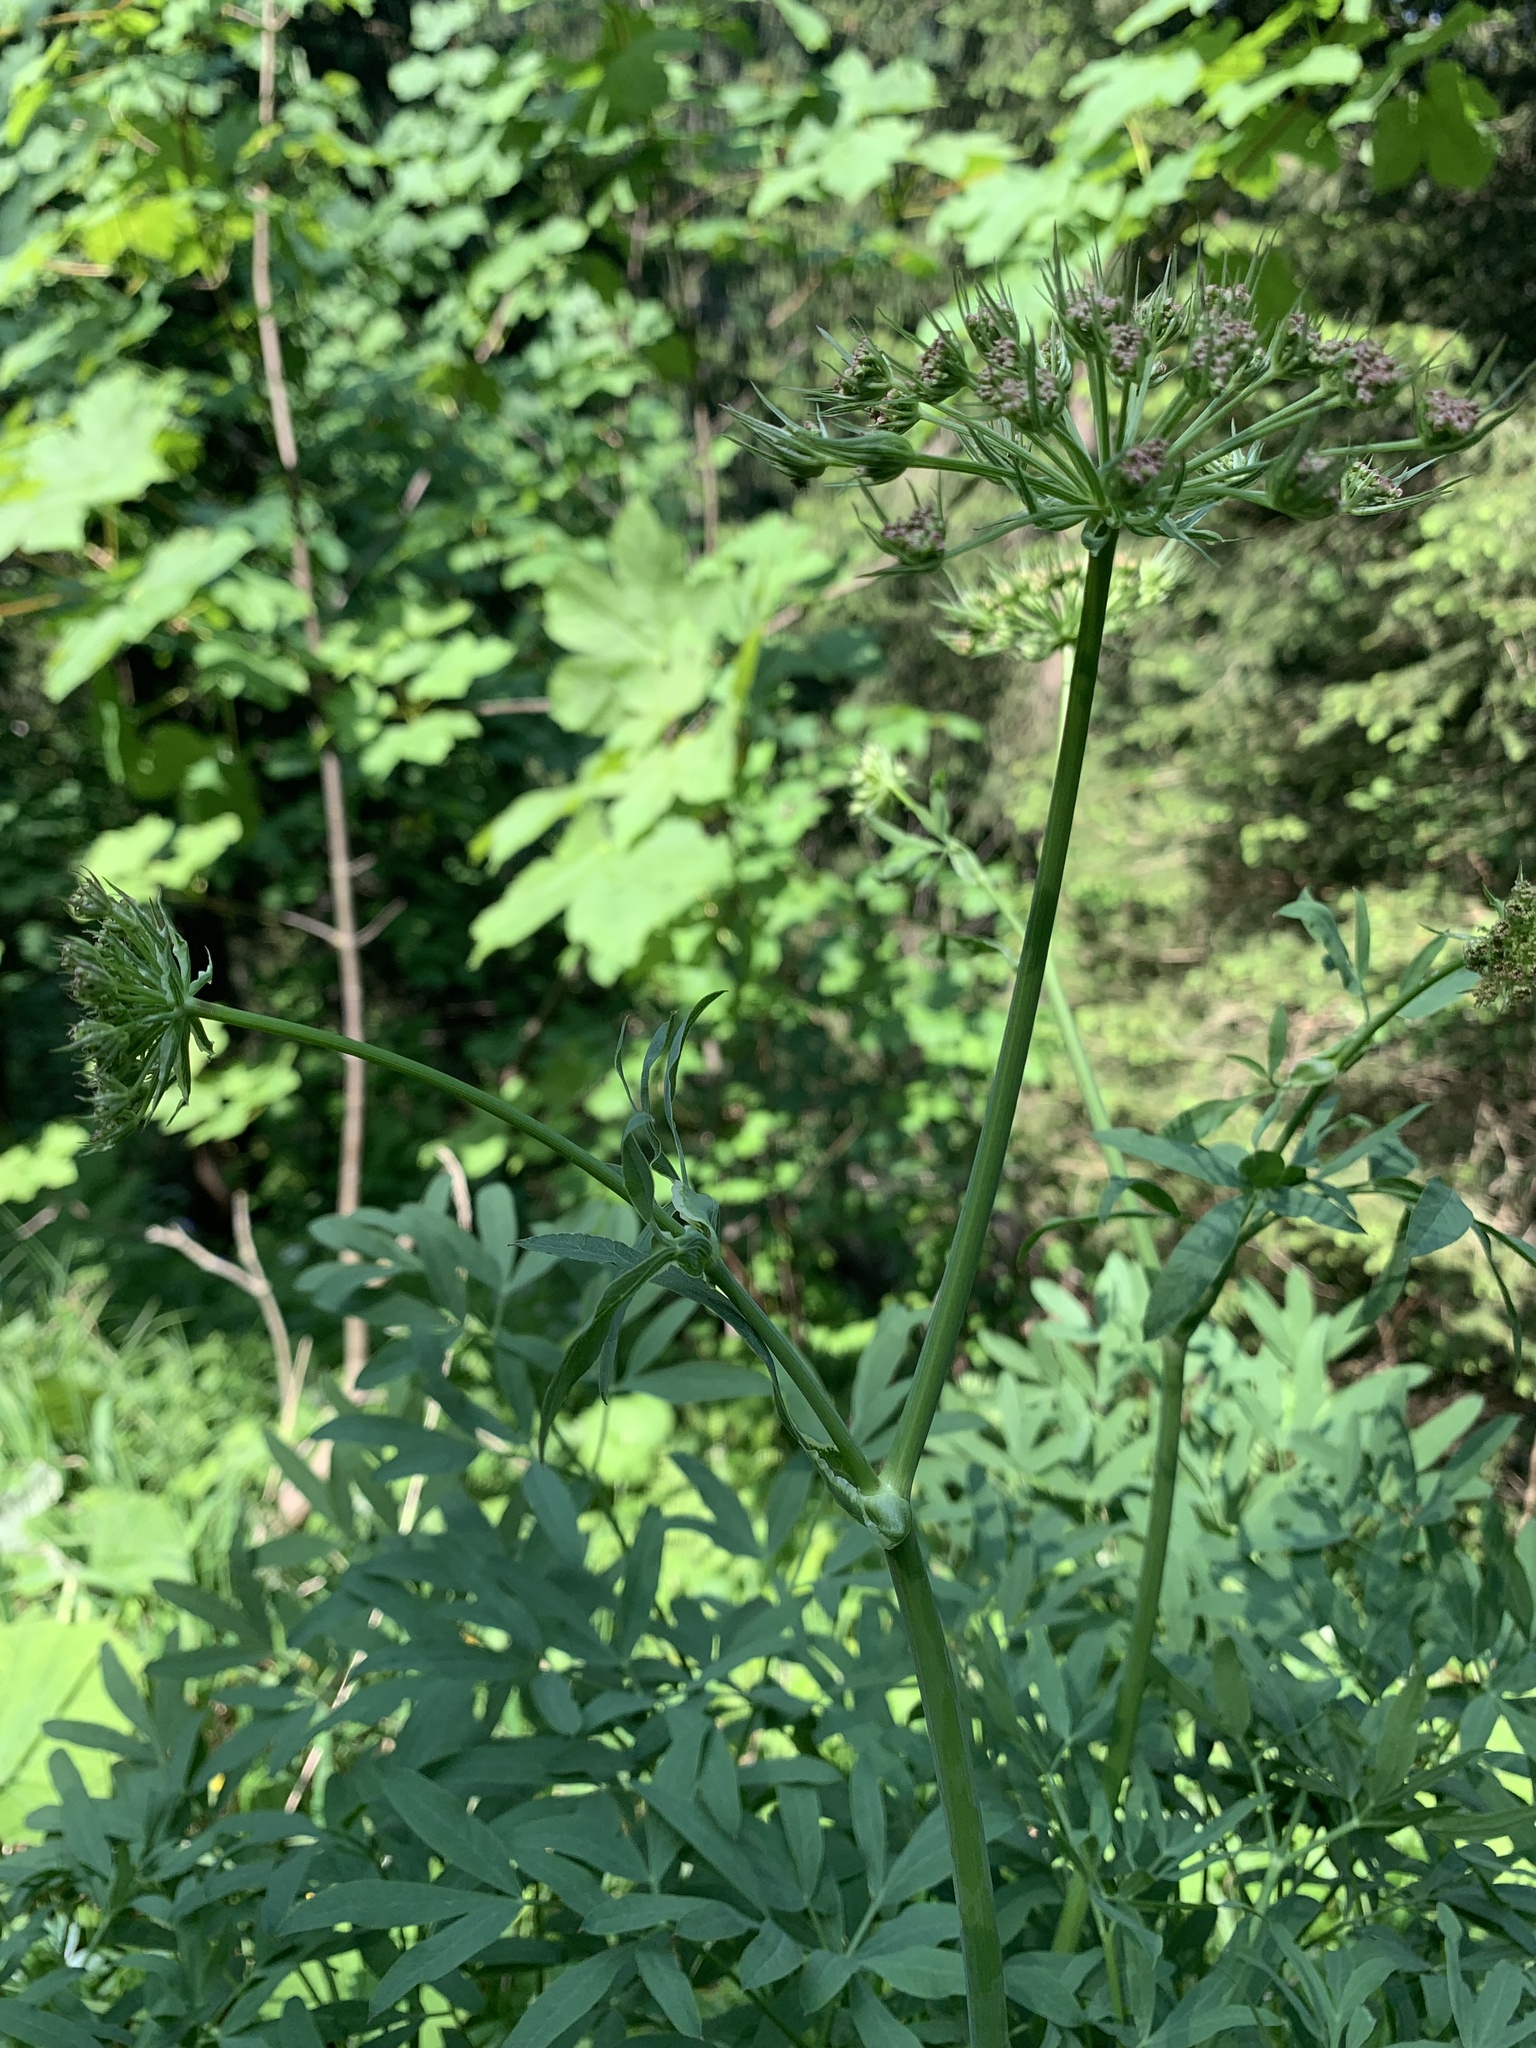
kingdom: Plantae
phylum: Tracheophyta
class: Magnoliopsida
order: Apiales
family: Apiaceae
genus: Siler
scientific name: Siler montanum
